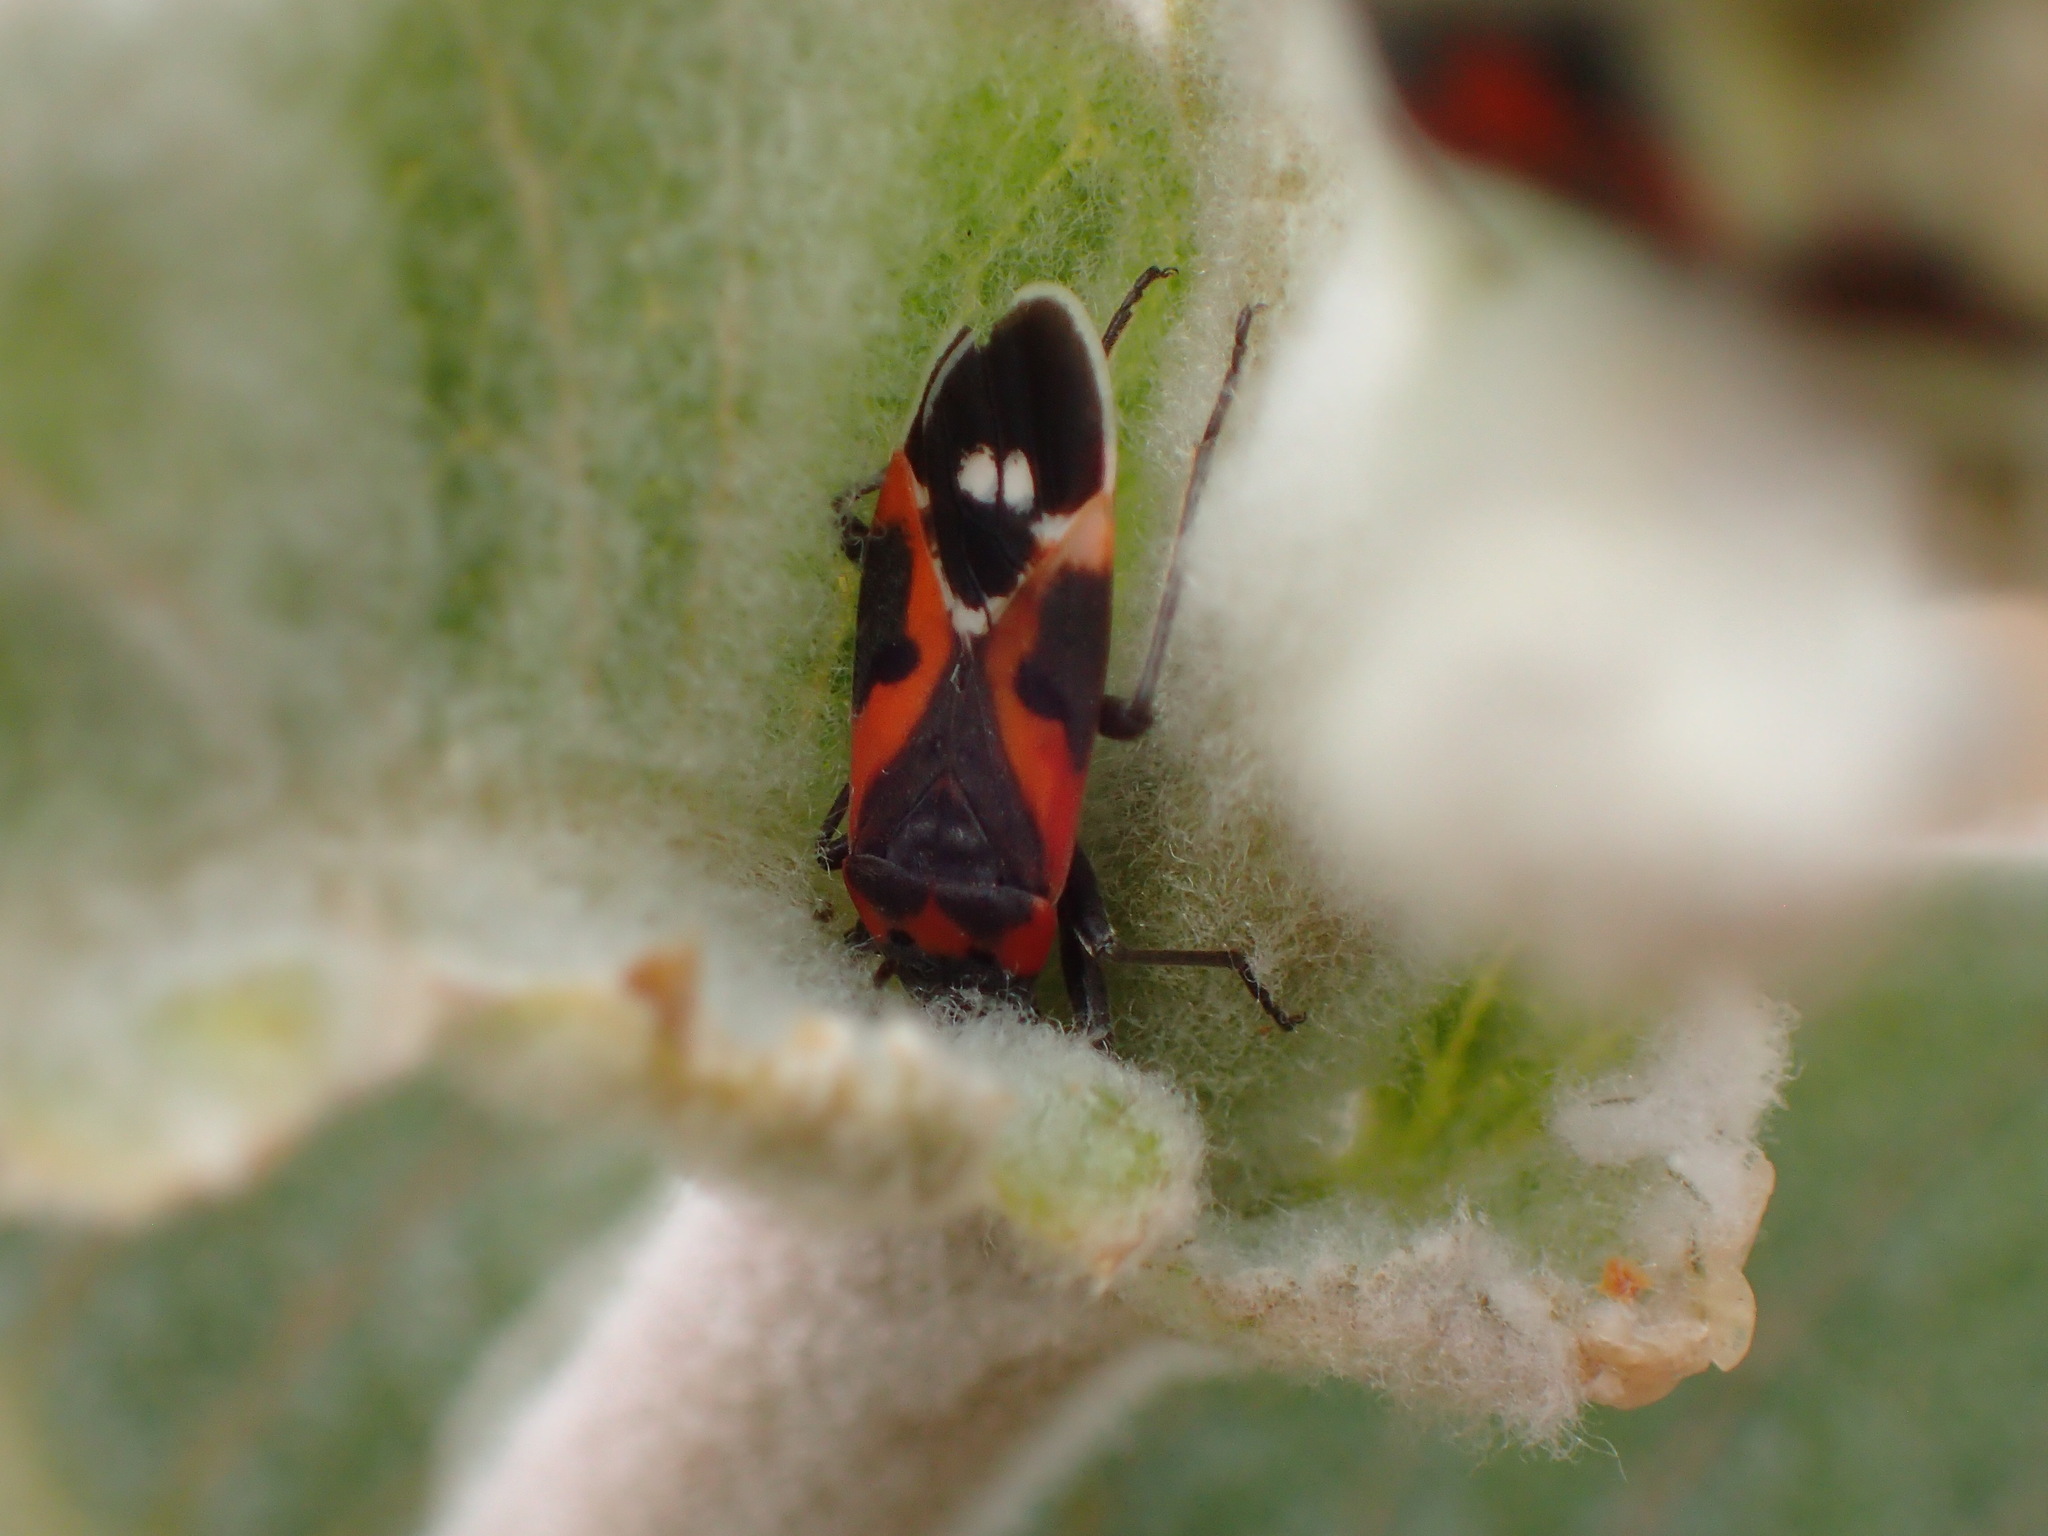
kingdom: Animalia
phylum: Arthropoda
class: Insecta
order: Hemiptera
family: Lygaeidae
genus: Lygaeus
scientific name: Lygaeus kalmii
